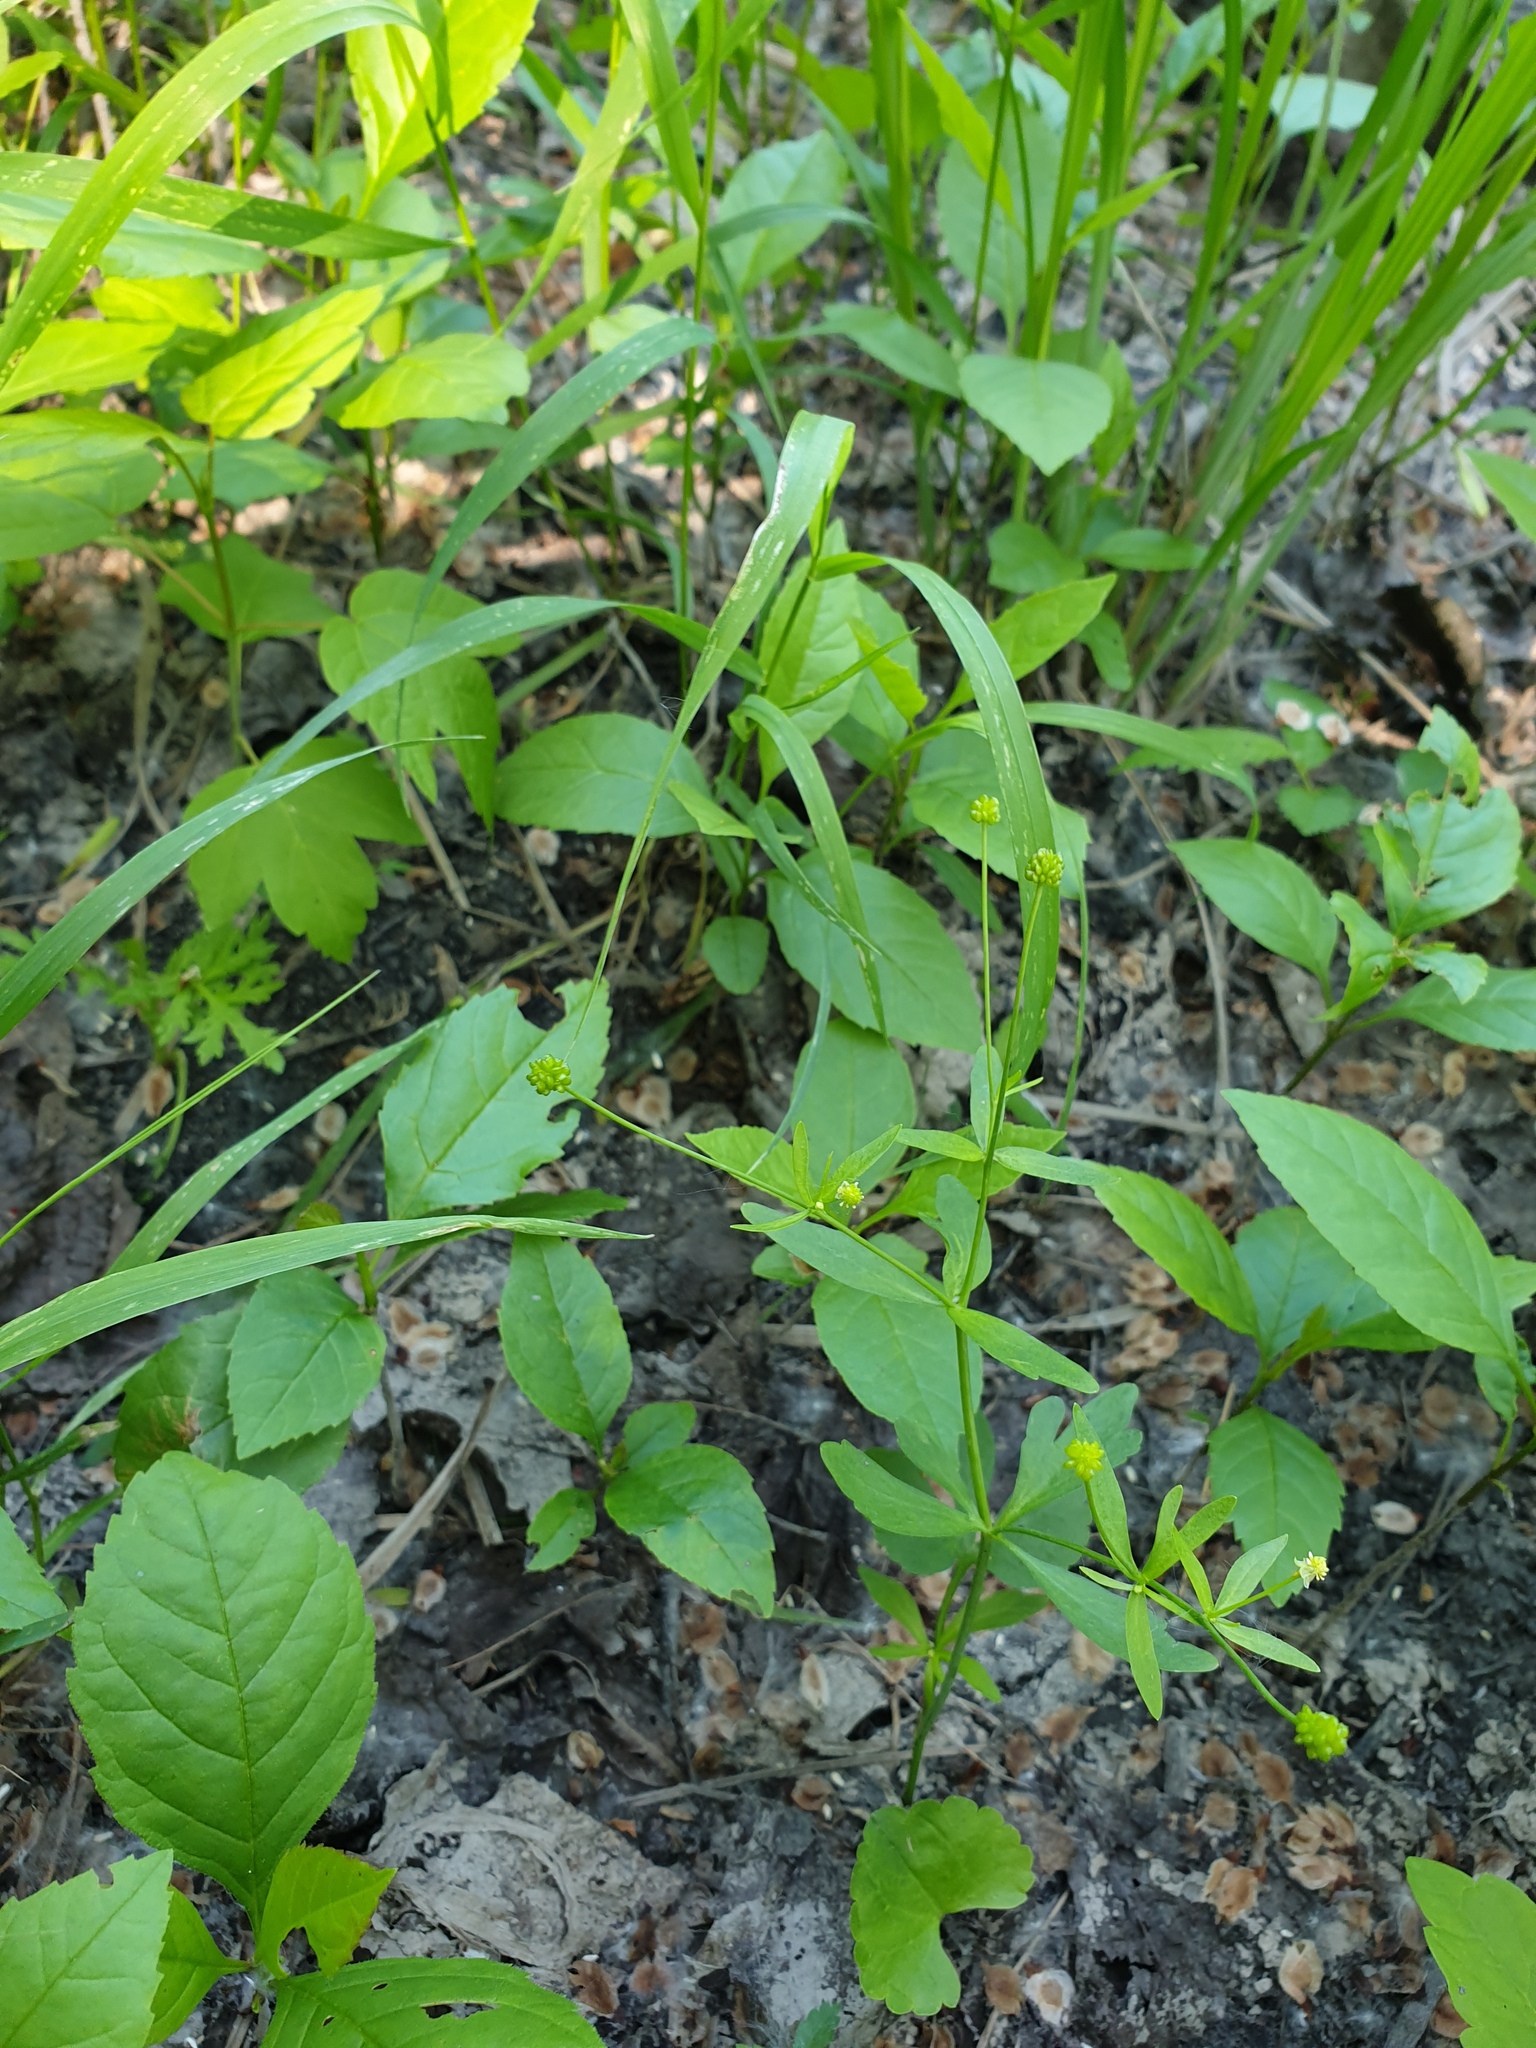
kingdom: Plantae
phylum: Tracheophyta
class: Magnoliopsida
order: Ranunculales
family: Ranunculaceae
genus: Ranunculus
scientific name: Ranunculus abortivus
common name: Early wood buttercup
